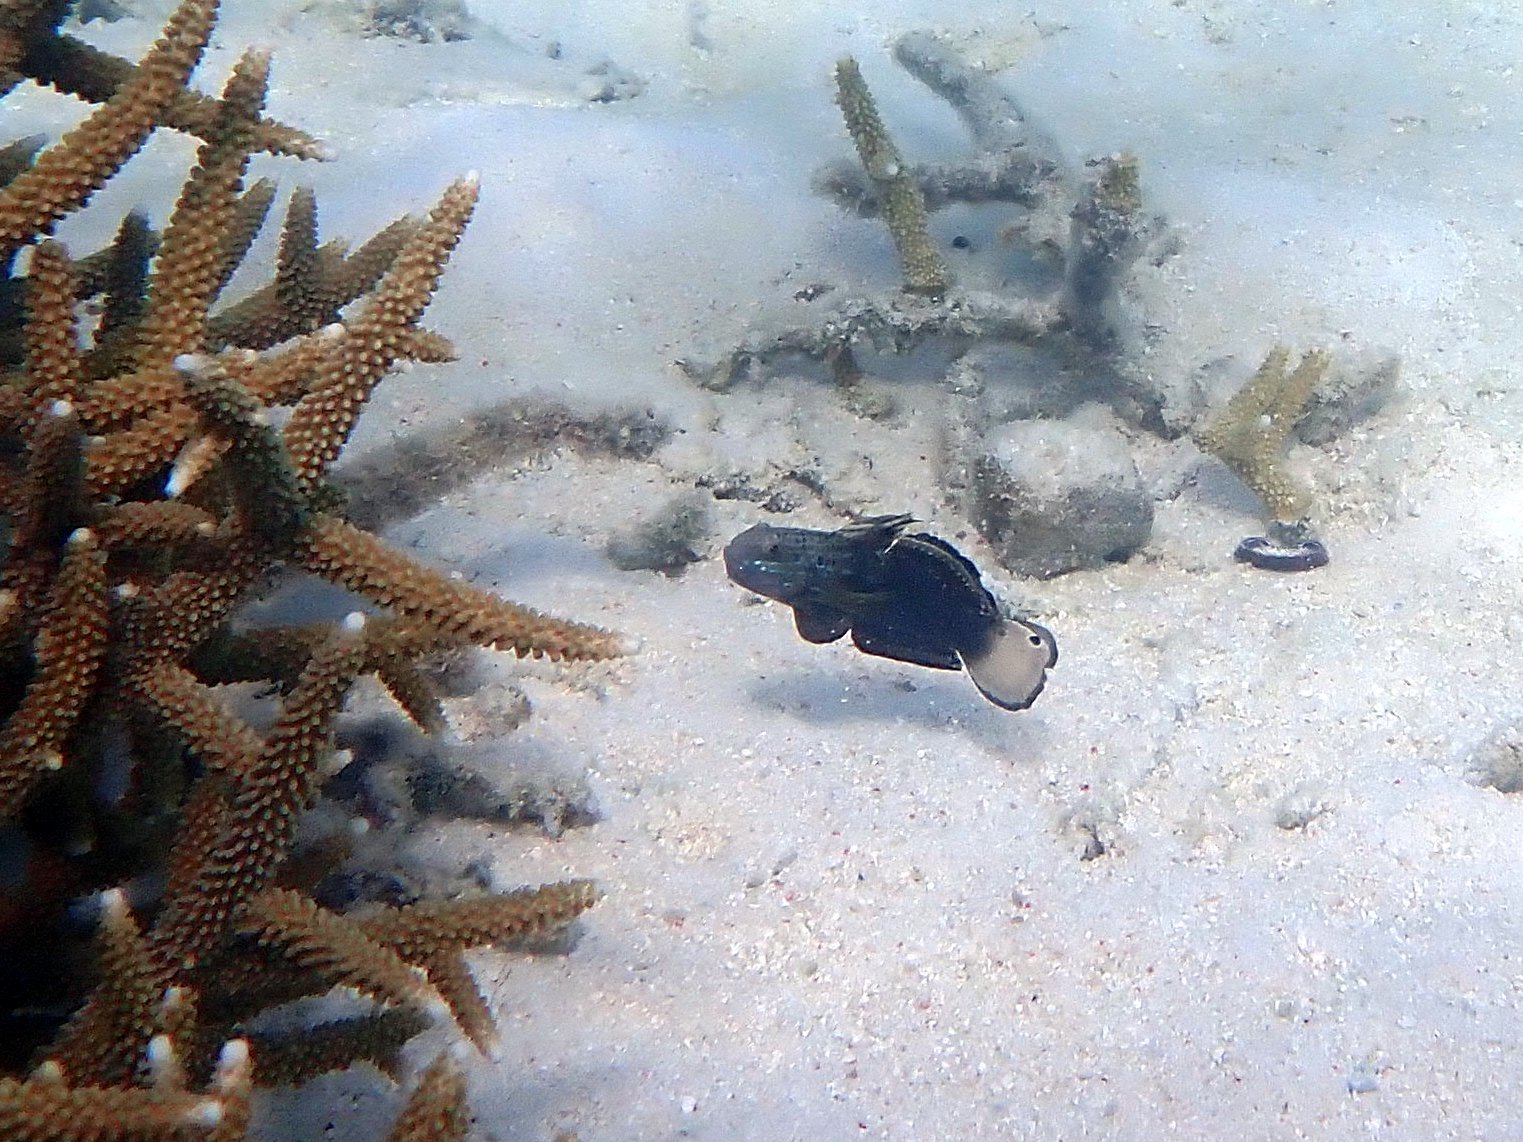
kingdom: Animalia
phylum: Chordata
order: Perciformes
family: Gobiidae
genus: Amblygobius
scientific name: Amblygobius phalaena
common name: Banded goby
